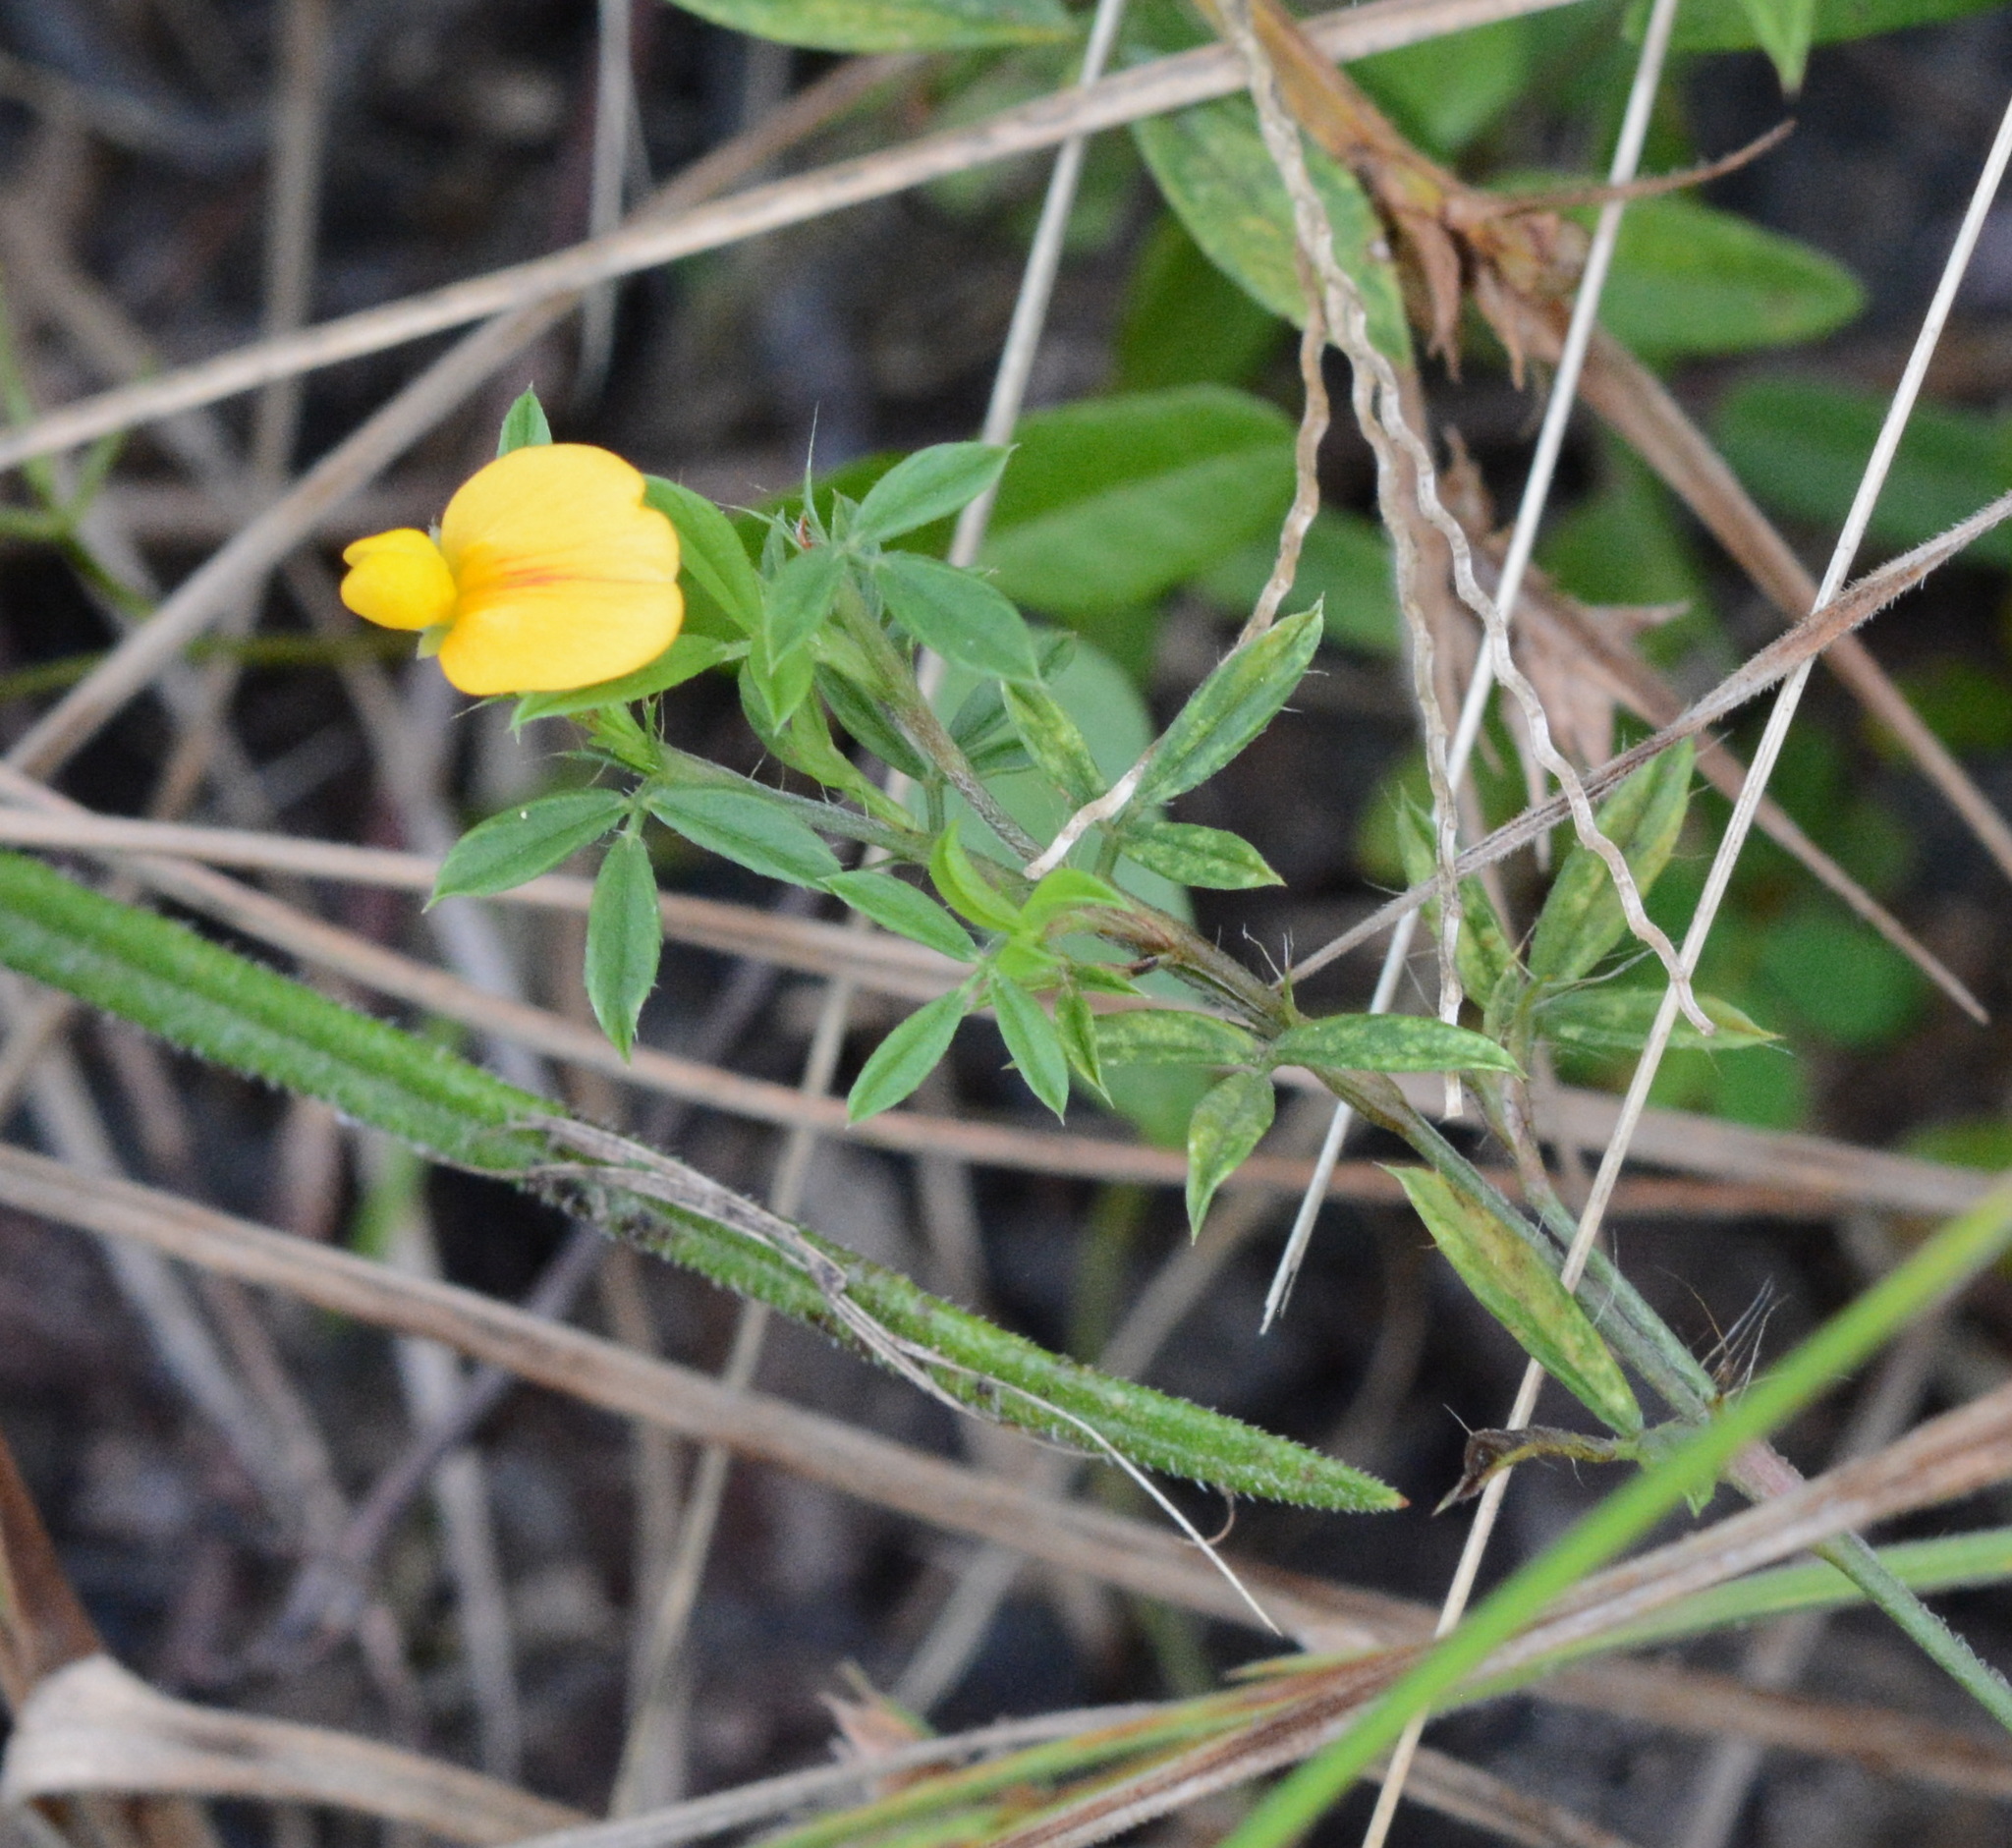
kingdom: Plantae
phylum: Tracheophyta
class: Magnoliopsida
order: Fabales
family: Fabaceae
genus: Stylosanthes
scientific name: Stylosanthes biflora
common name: Two-flower pencil-flower
